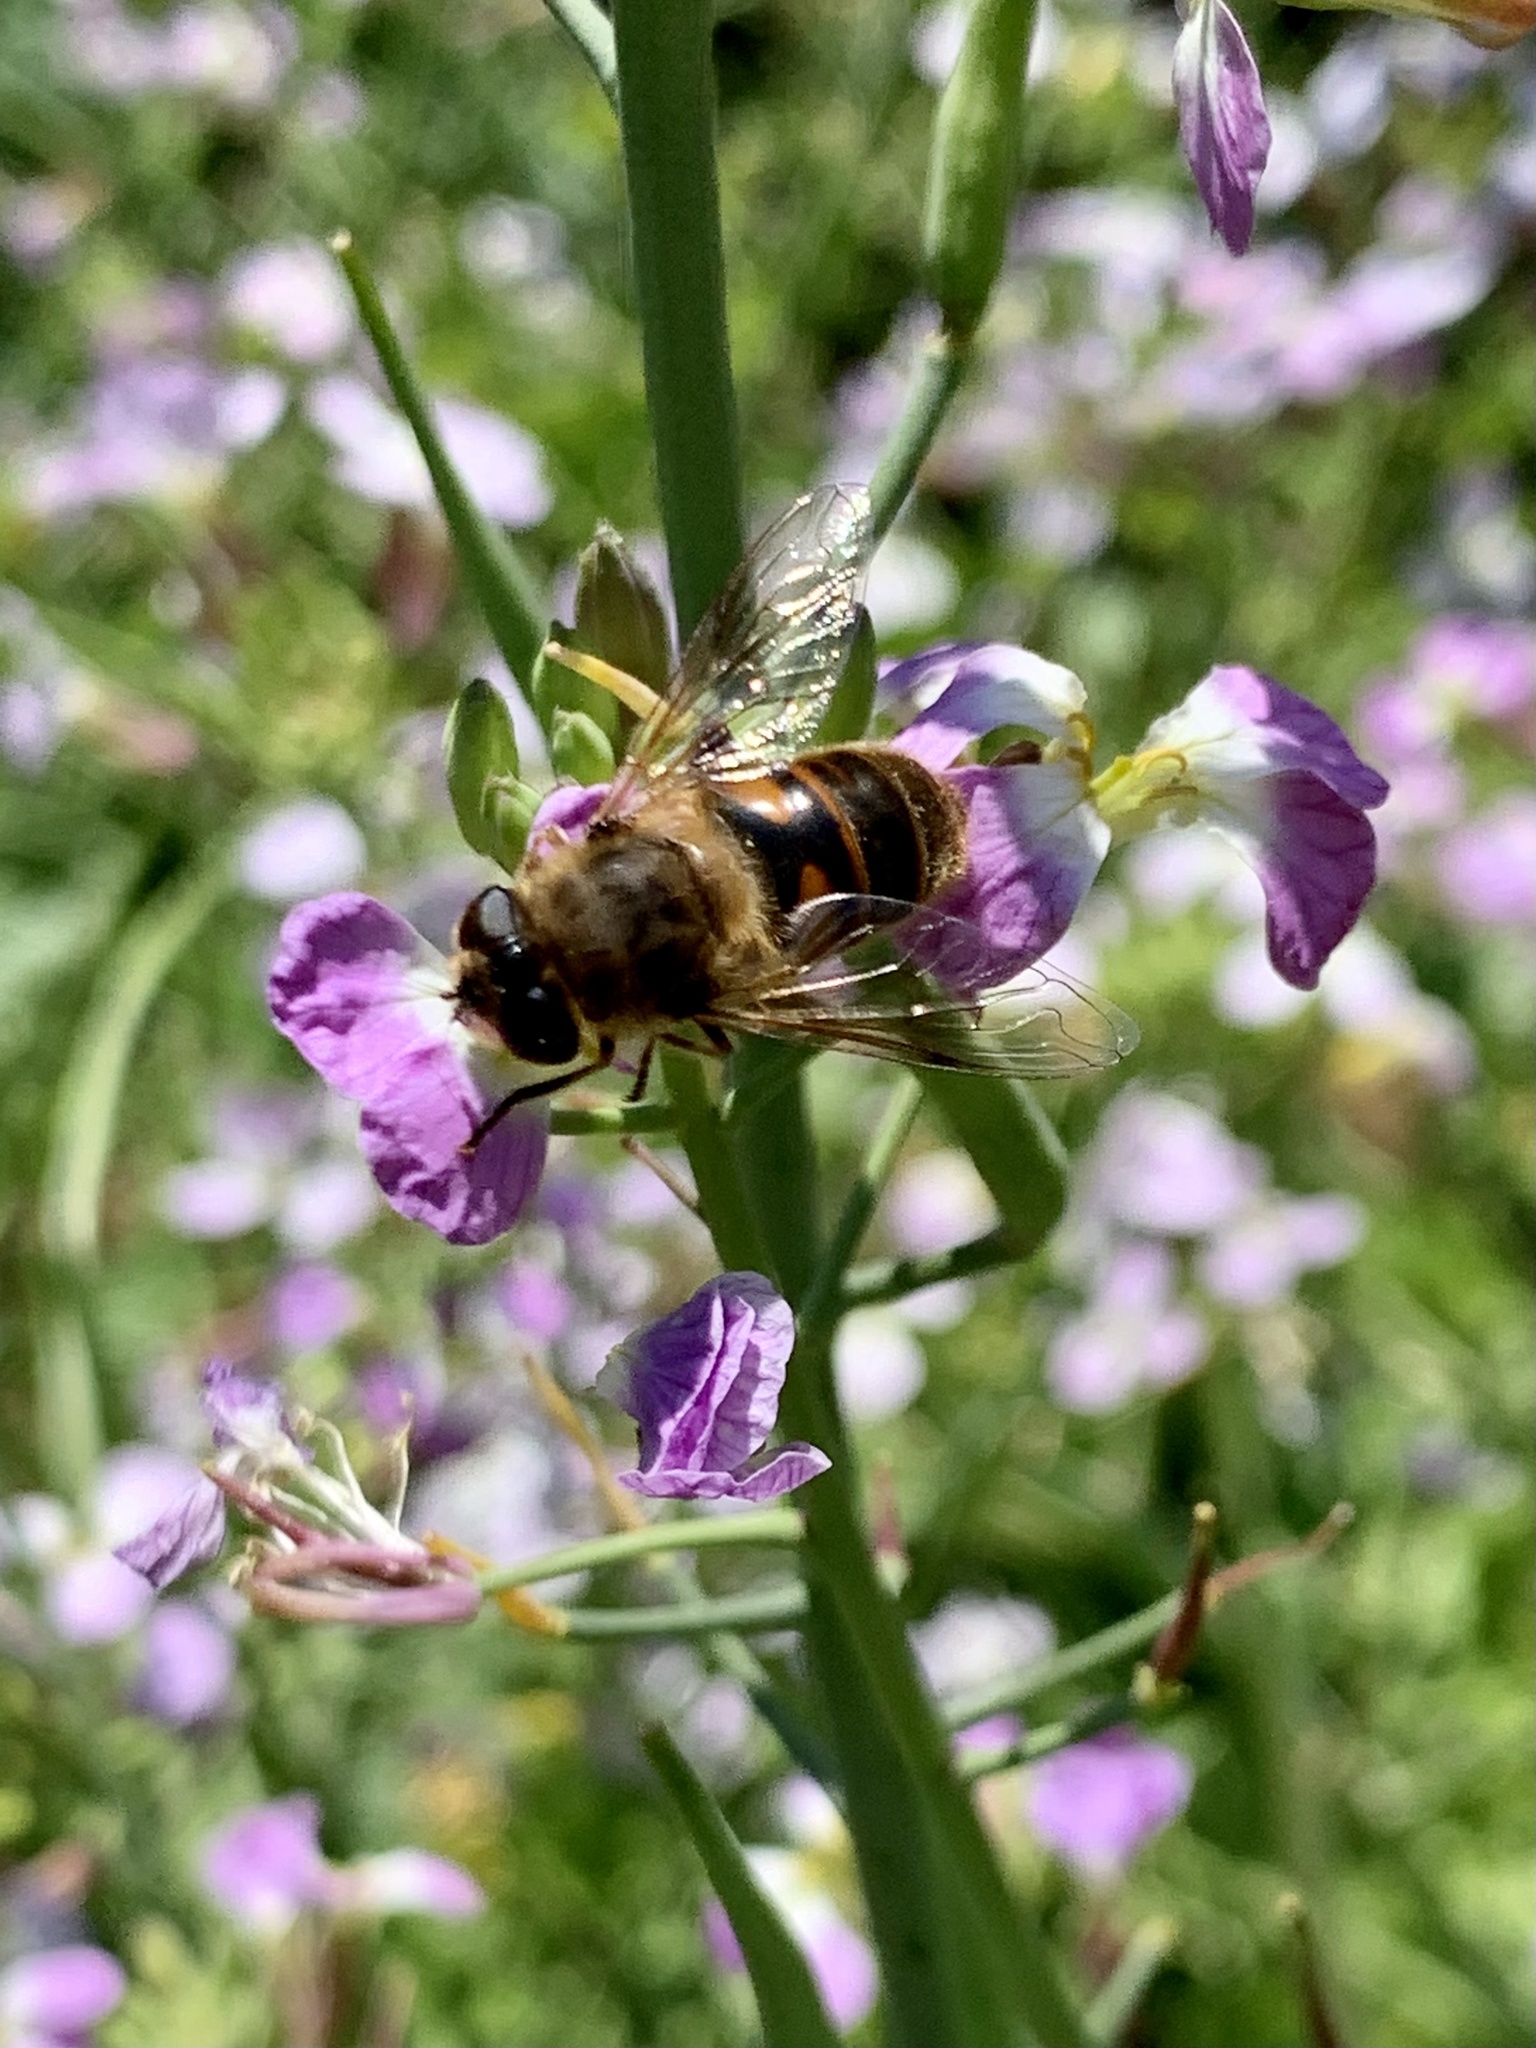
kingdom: Animalia
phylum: Arthropoda
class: Insecta
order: Diptera
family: Syrphidae
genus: Eristalis
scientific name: Eristalis tenax
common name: Drone fly
